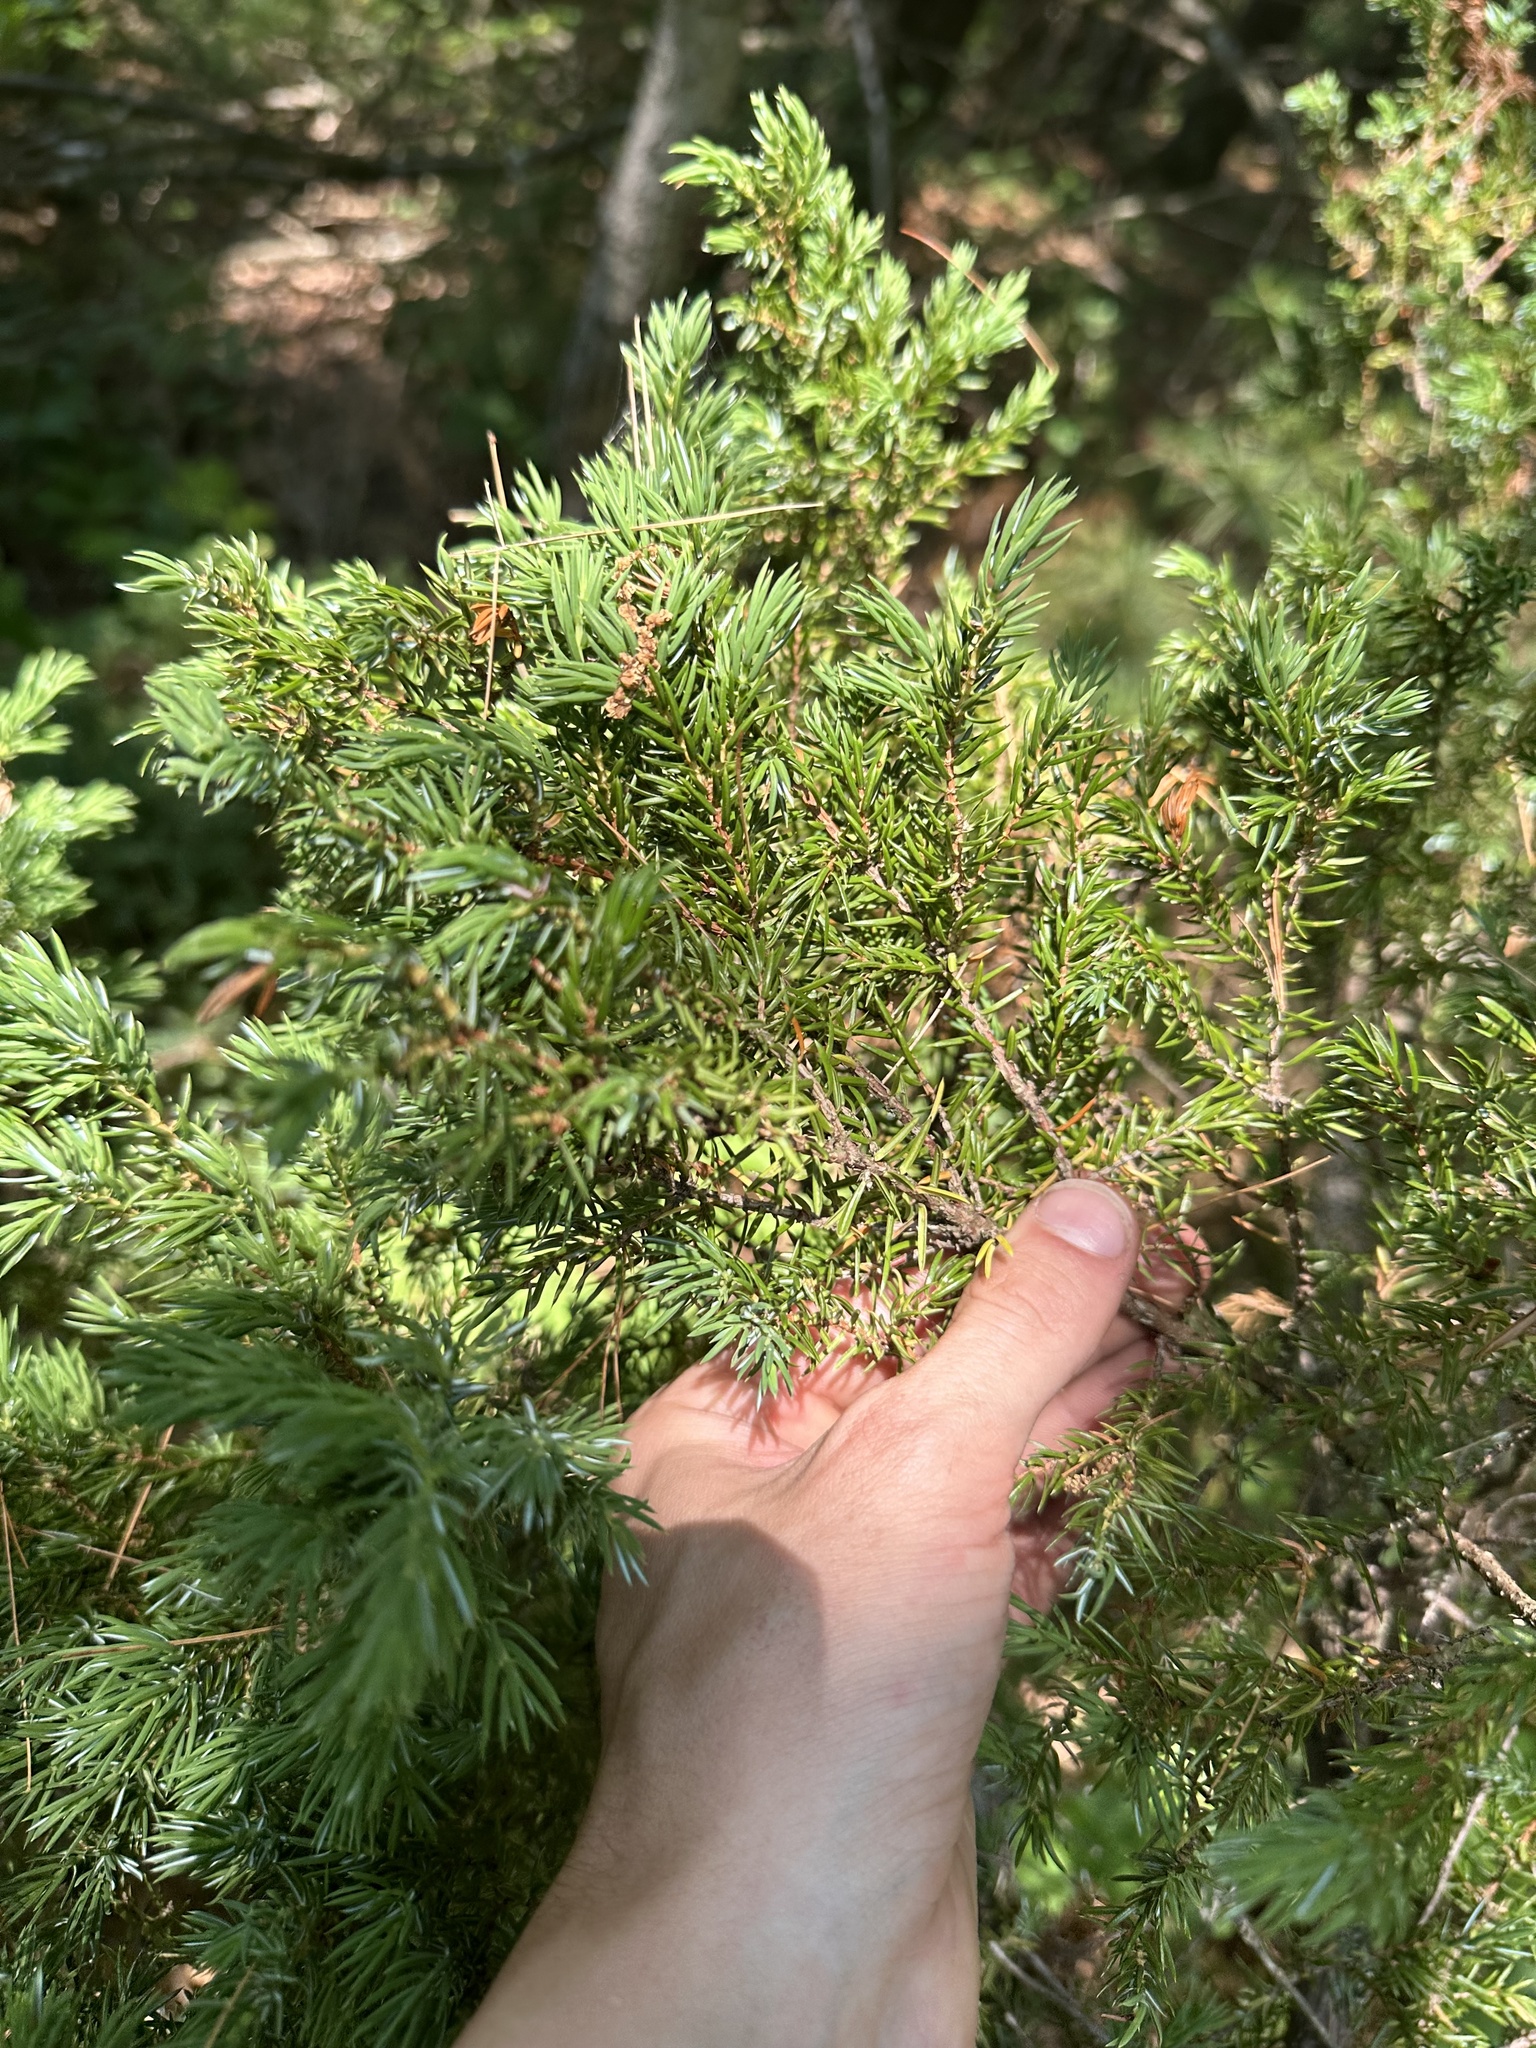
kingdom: Plantae
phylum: Tracheophyta
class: Pinopsida
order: Pinales
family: Cupressaceae
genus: Juniperus
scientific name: Juniperus communis
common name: Common juniper
